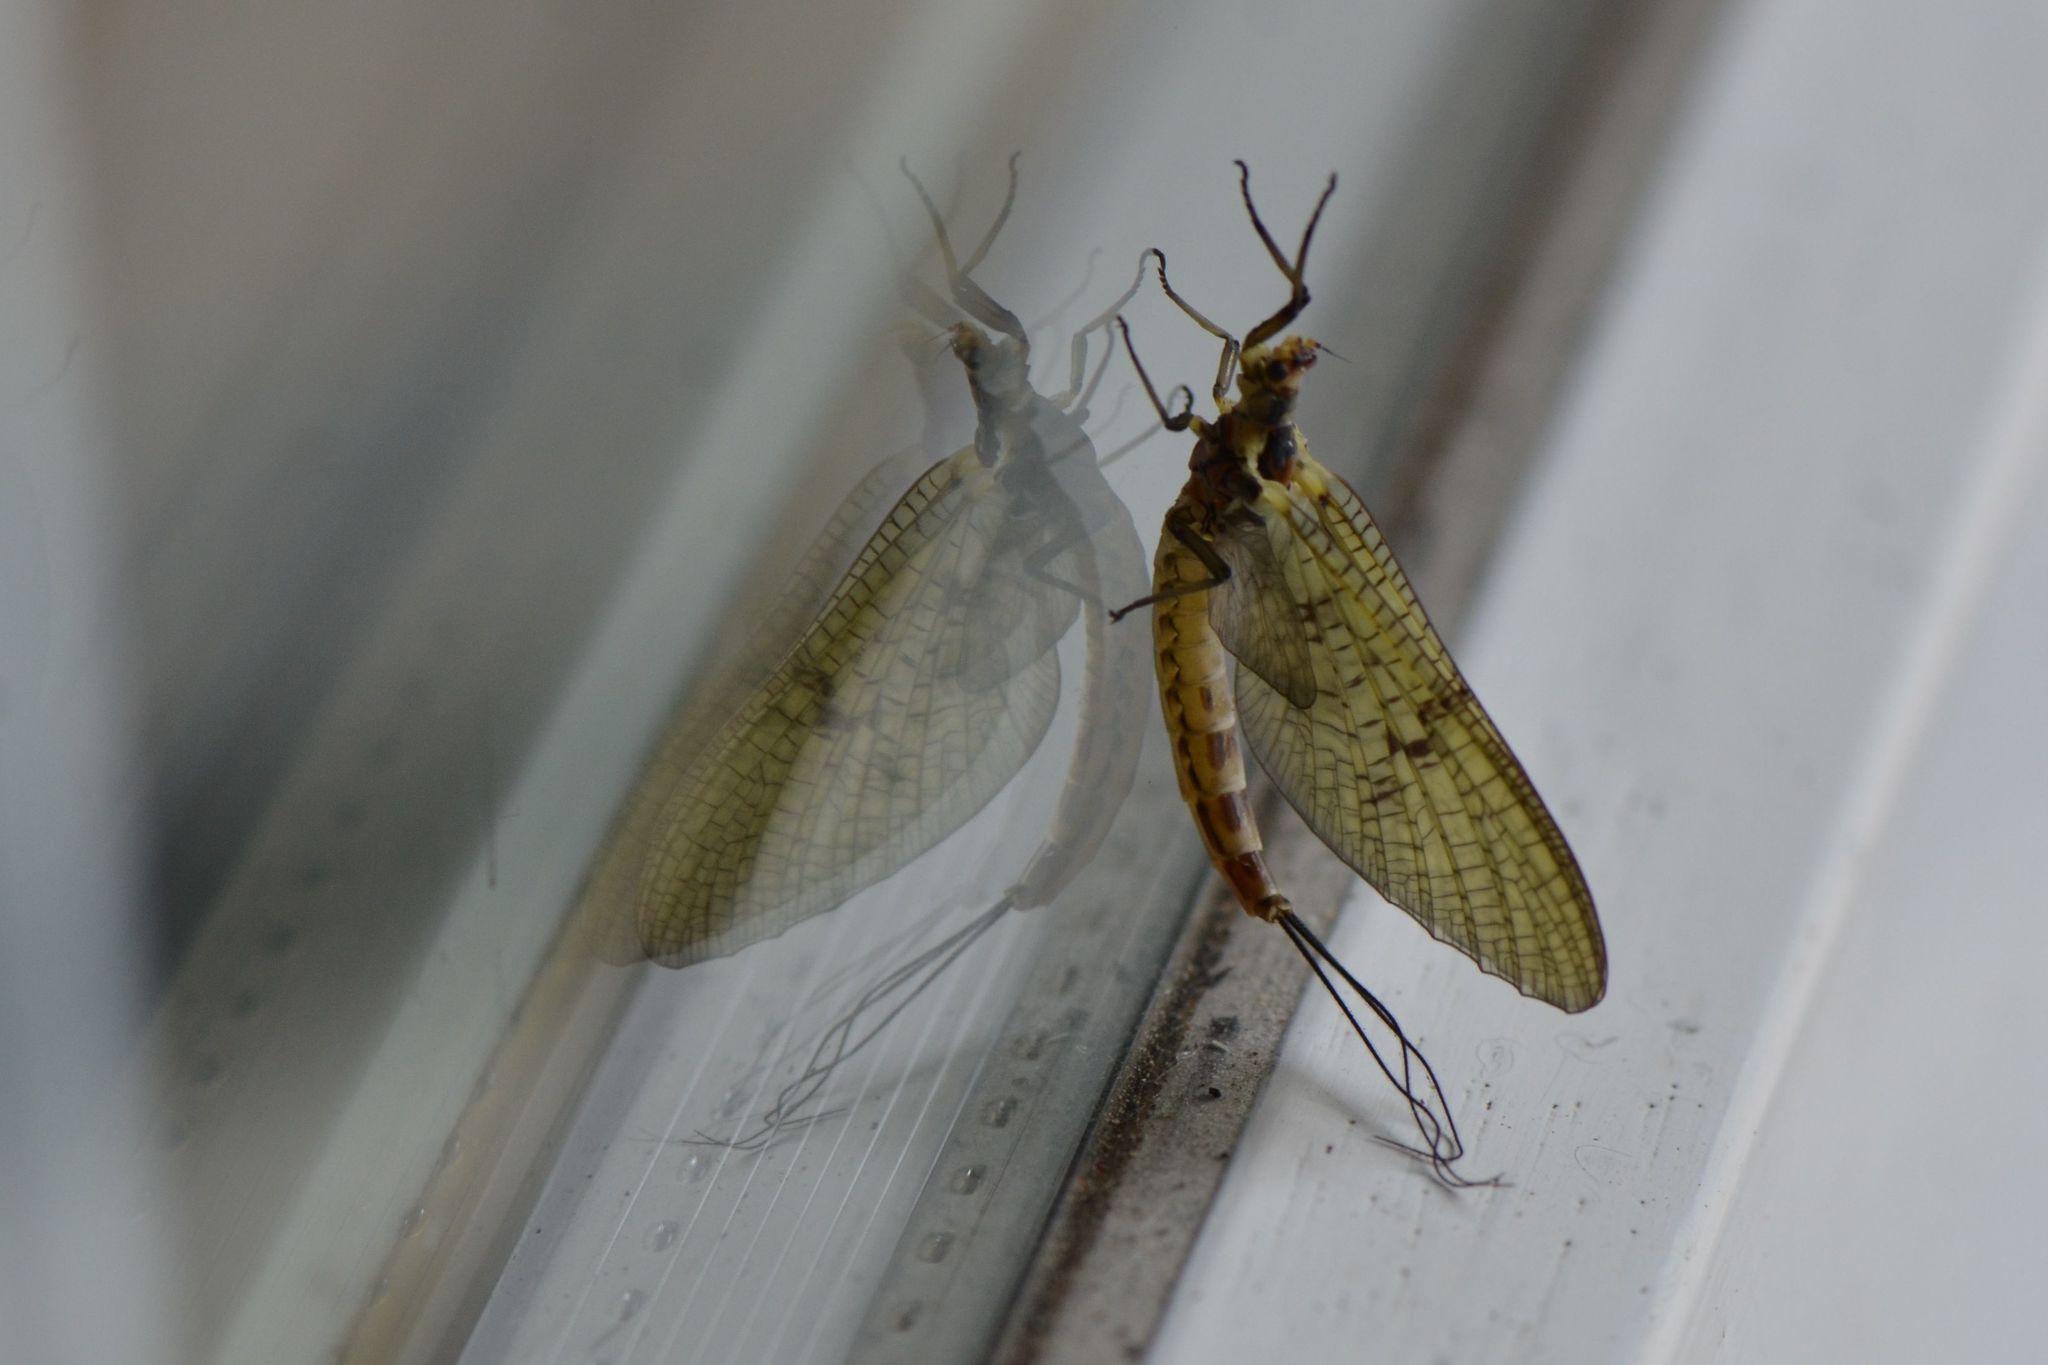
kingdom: Animalia
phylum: Arthropoda
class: Insecta
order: Ephemeroptera
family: Ephemeridae
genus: Ephemera
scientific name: Ephemera danica
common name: Green dun
